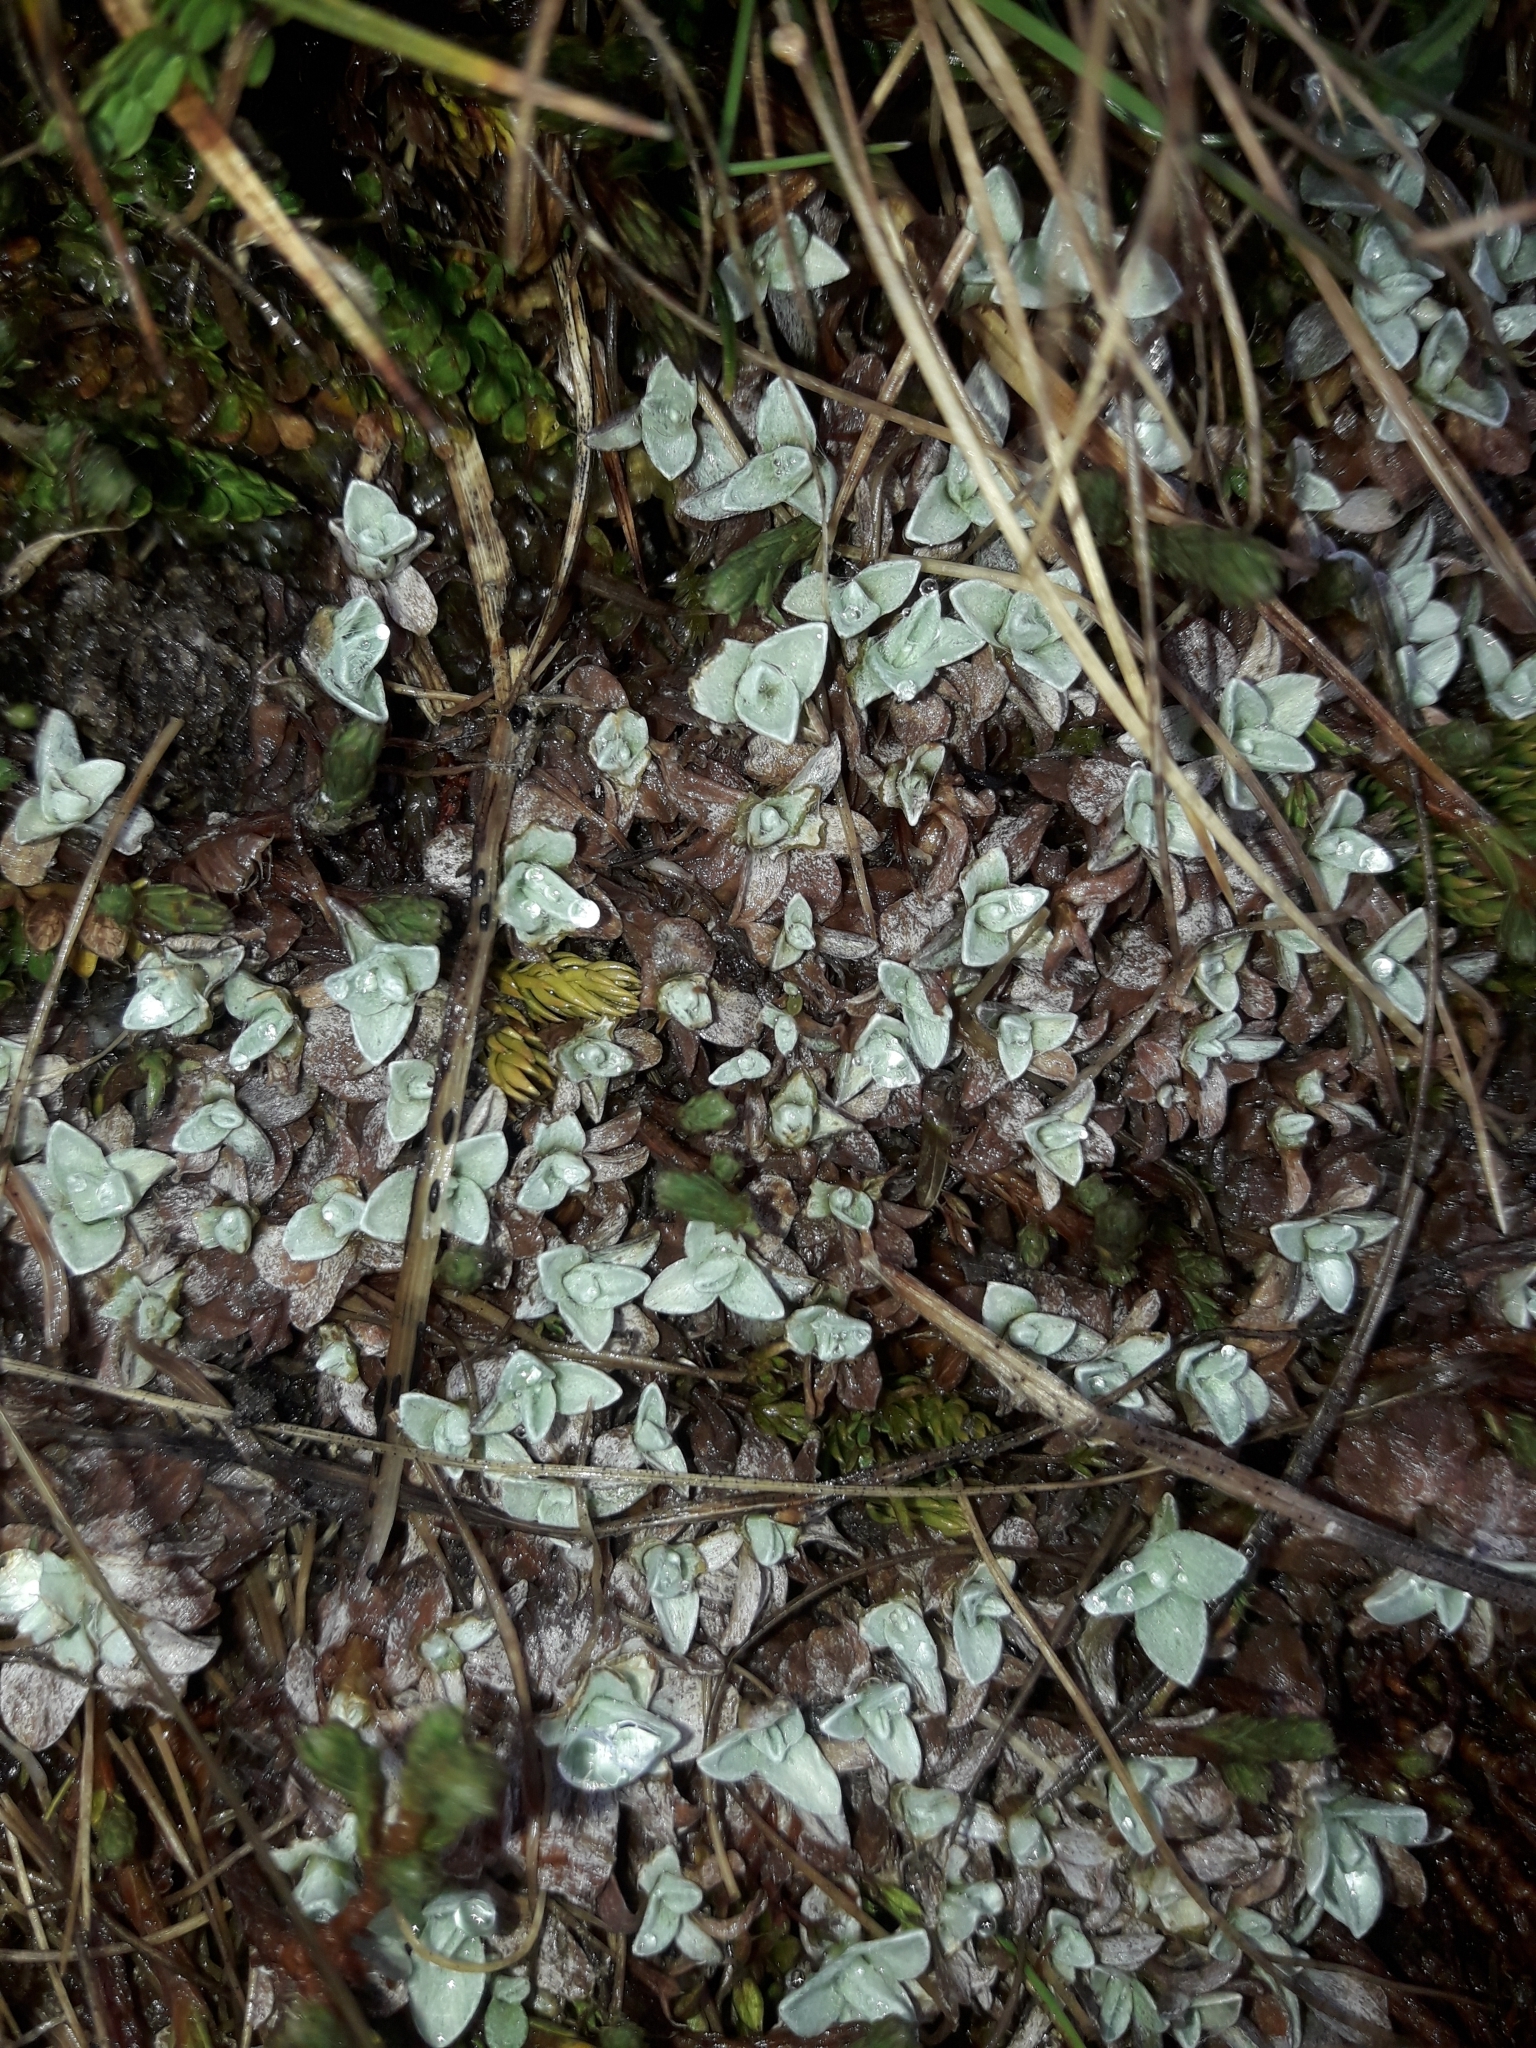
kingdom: Plantae
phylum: Tracheophyta
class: Magnoliopsida
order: Asterales
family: Asteraceae
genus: Anaphalioides
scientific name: Anaphalioides bellidioides
